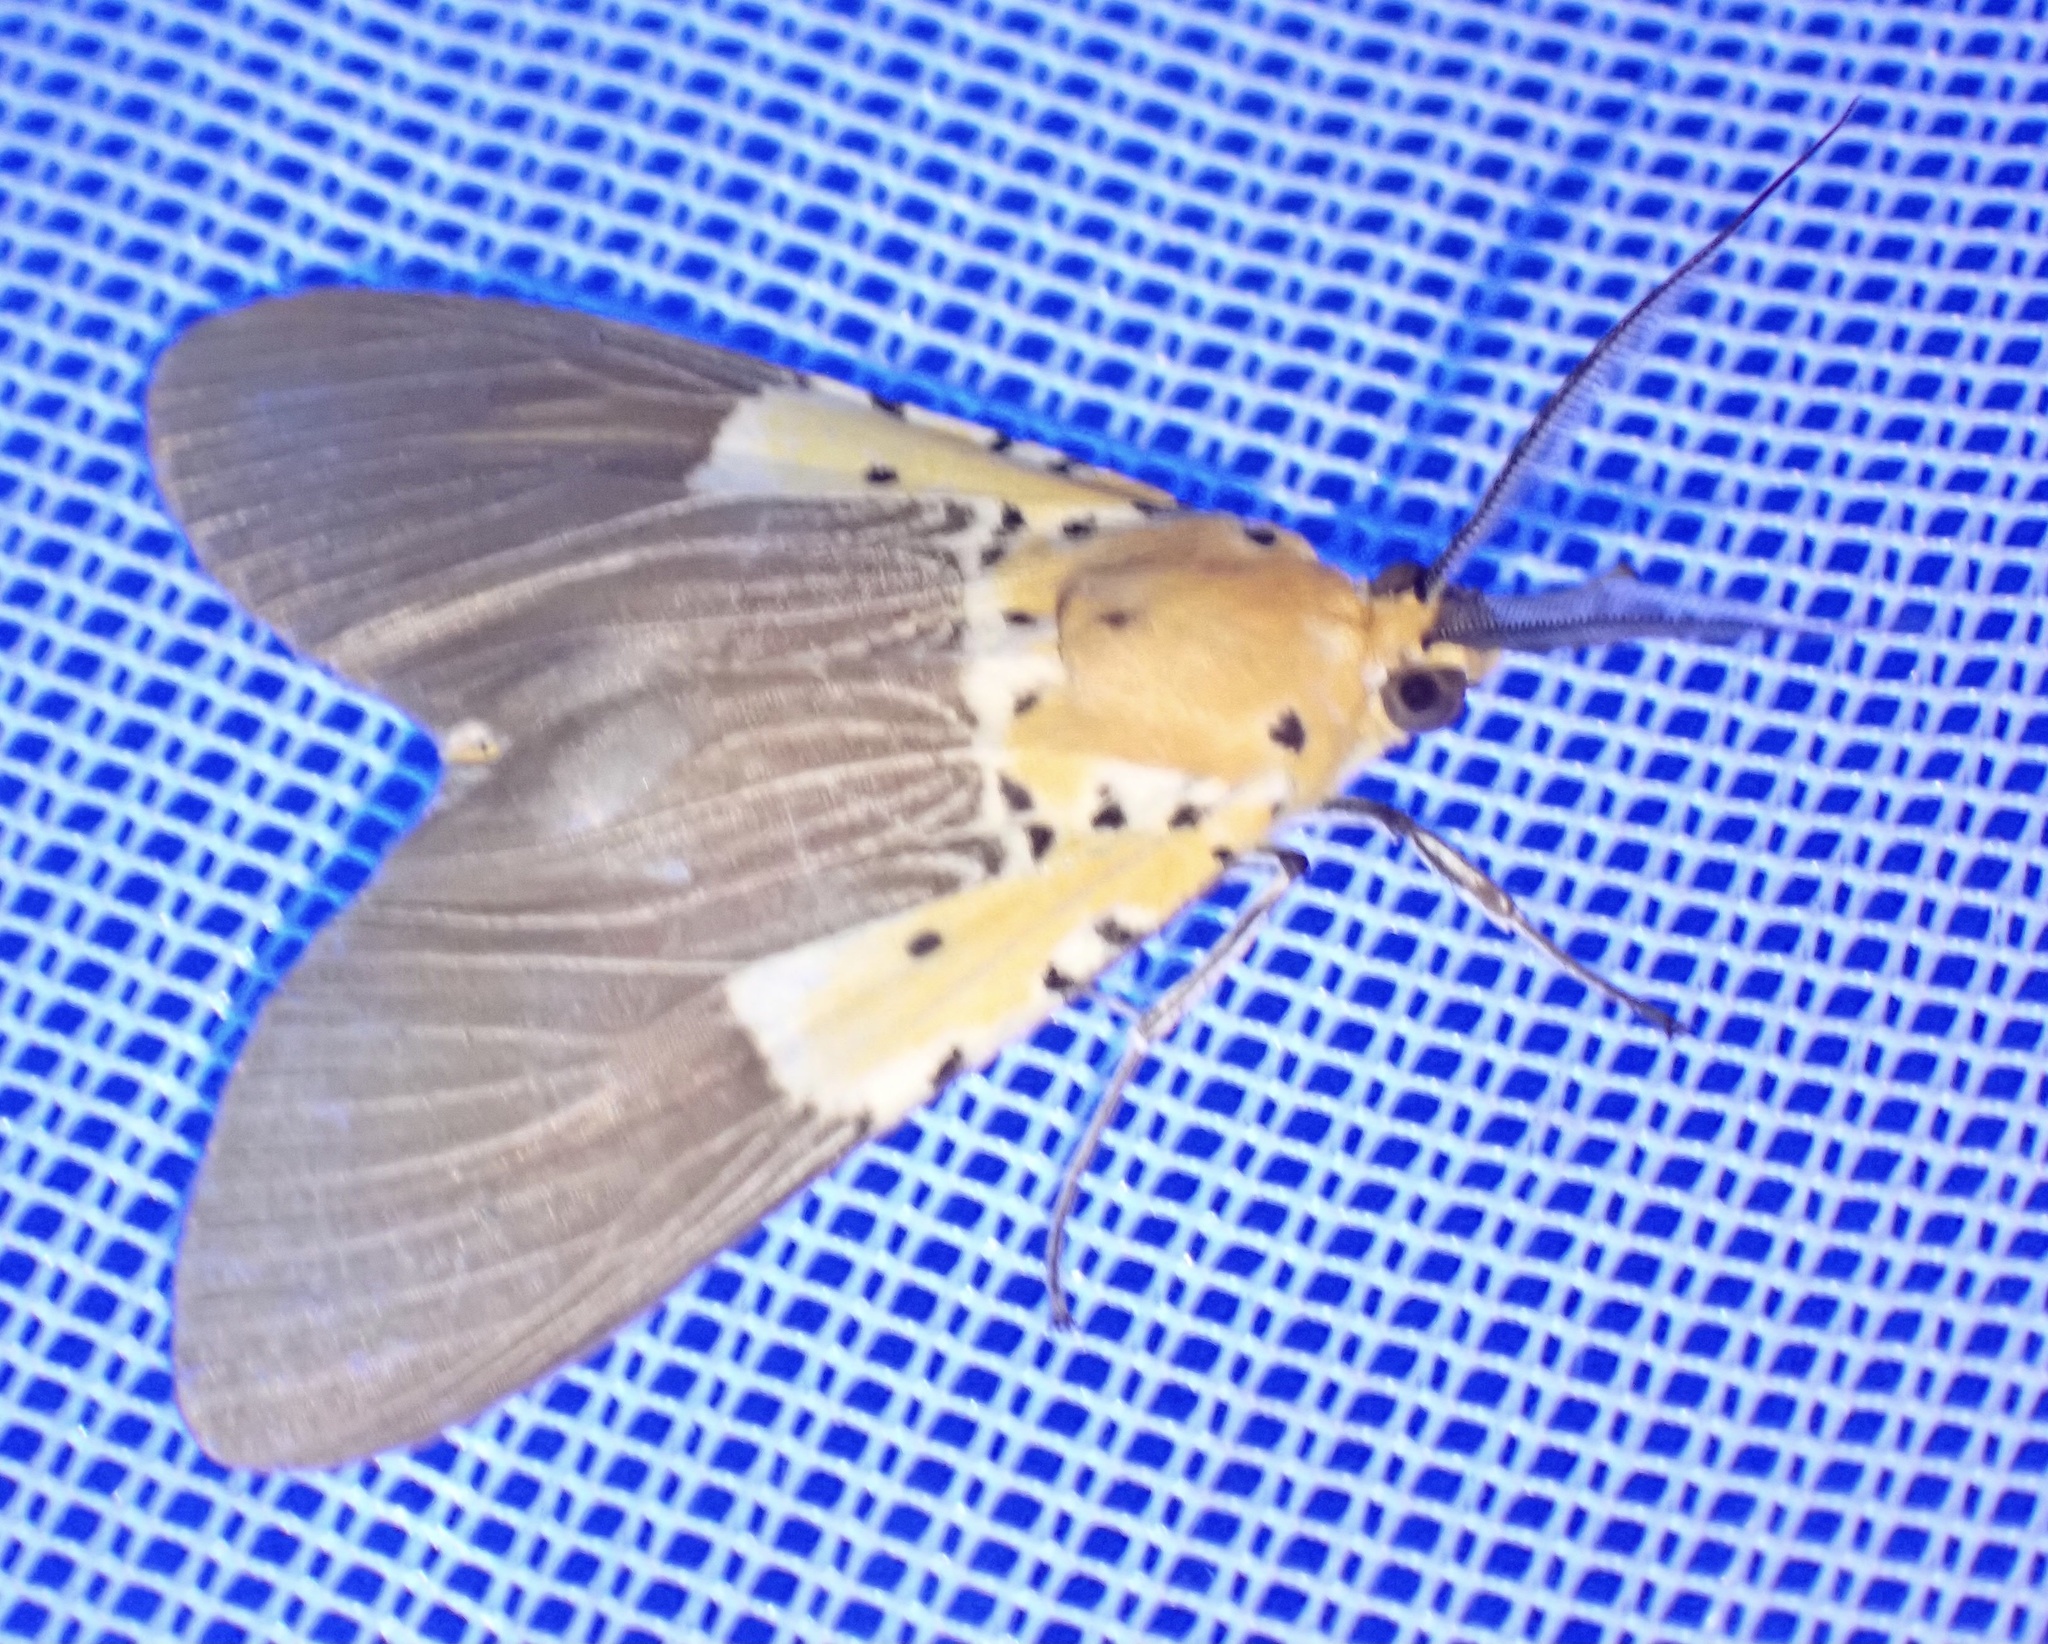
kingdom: Animalia
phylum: Arthropoda
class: Insecta
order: Lepidoptera
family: Erebidae
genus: Asota
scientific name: Asota speciosa
